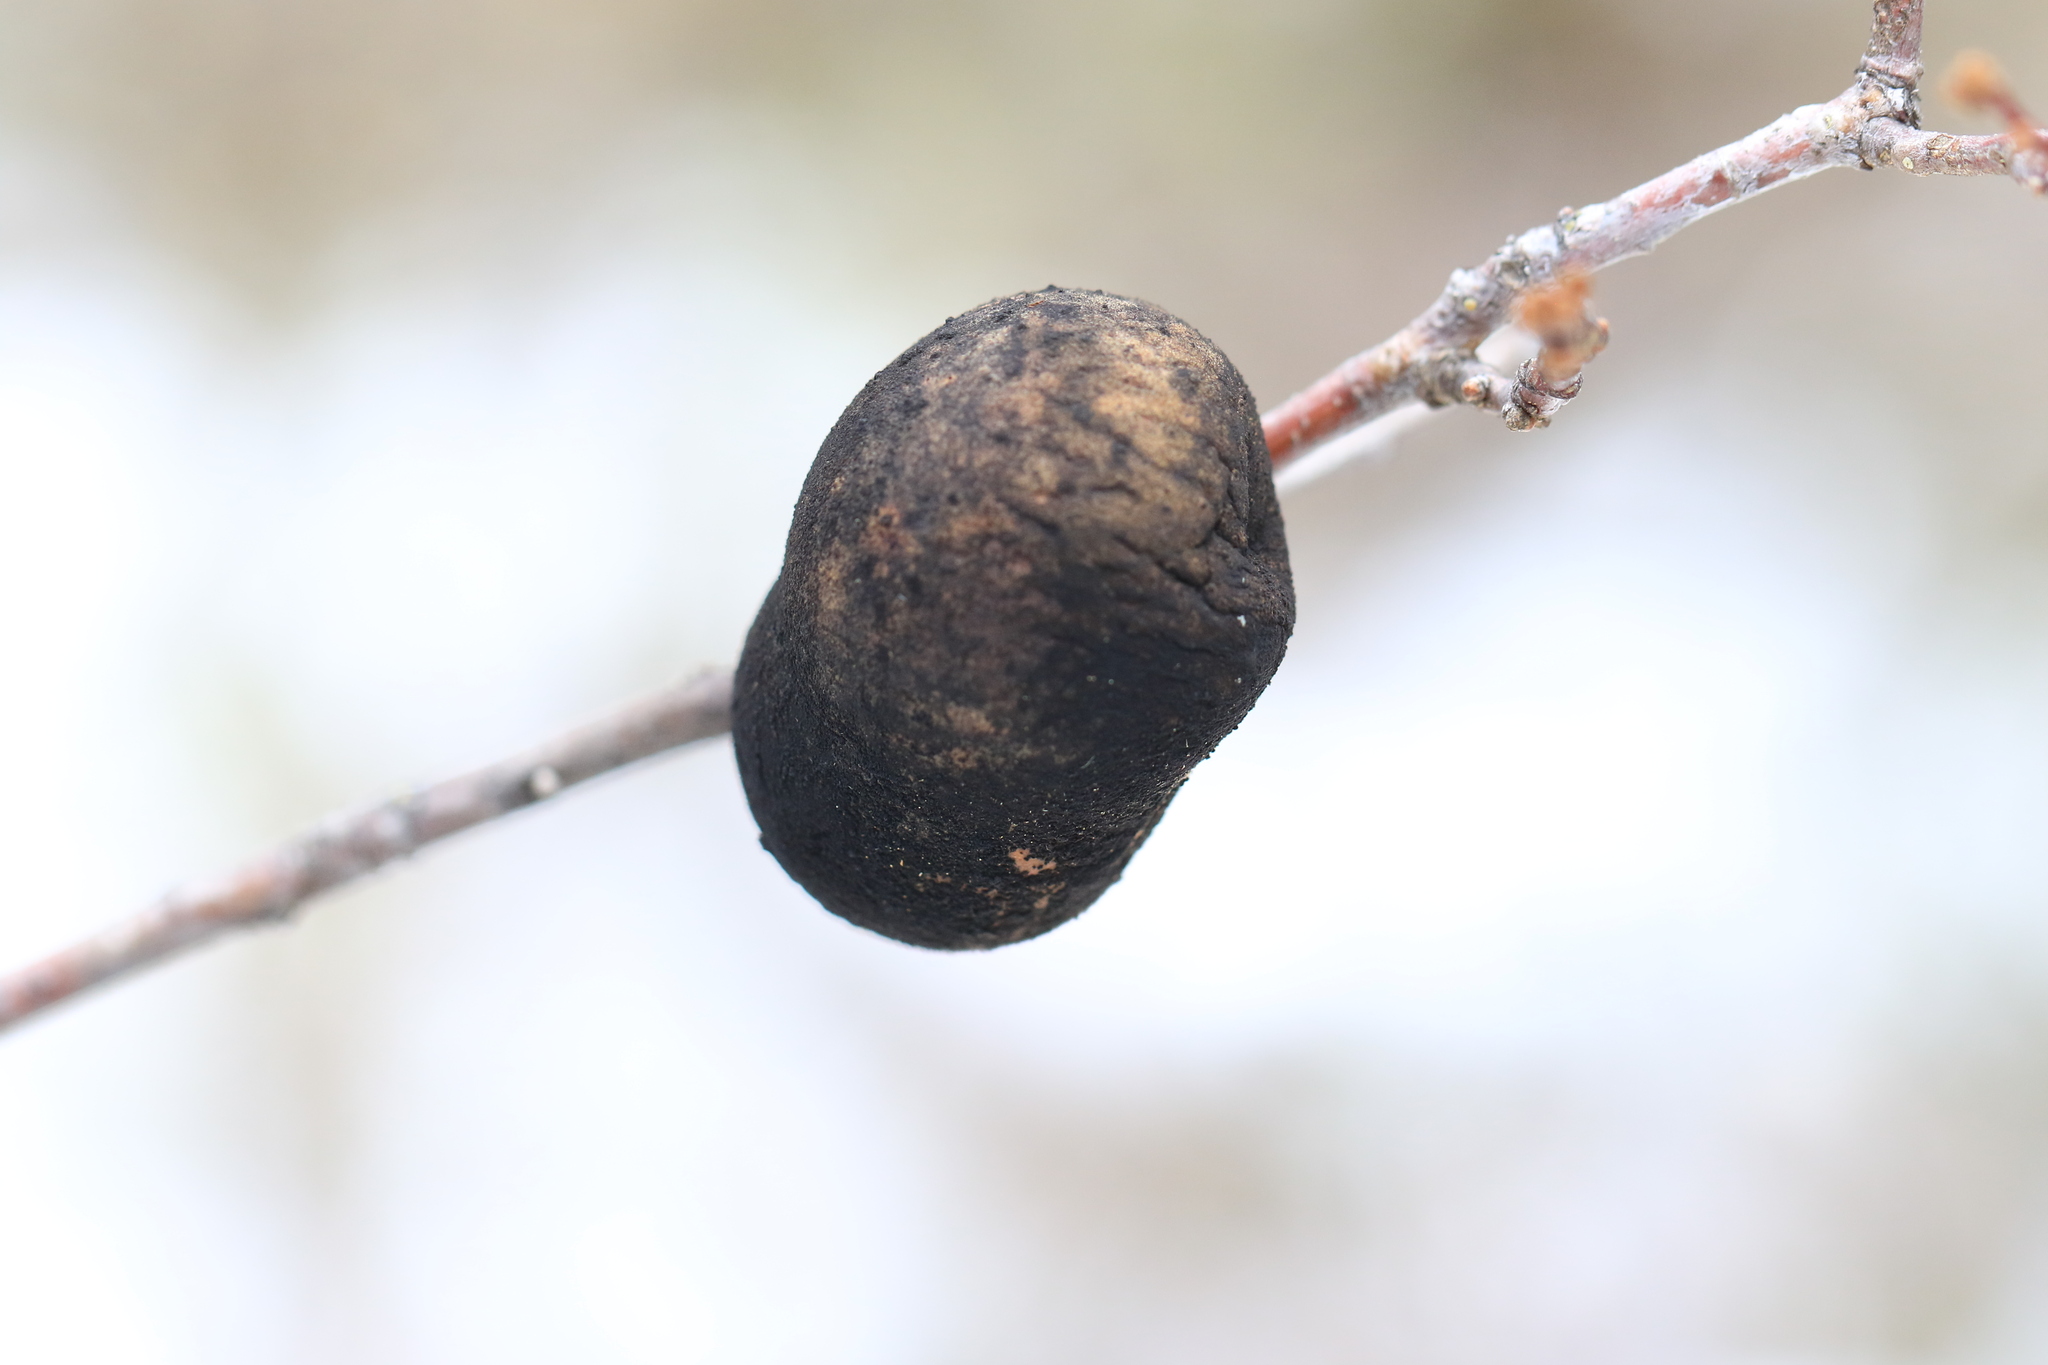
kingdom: Animalia
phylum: Arthropoda
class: Insecta
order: Hymenoptera
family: Cynipidae
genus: Andricus
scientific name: Andricus quercuscalifornicus
